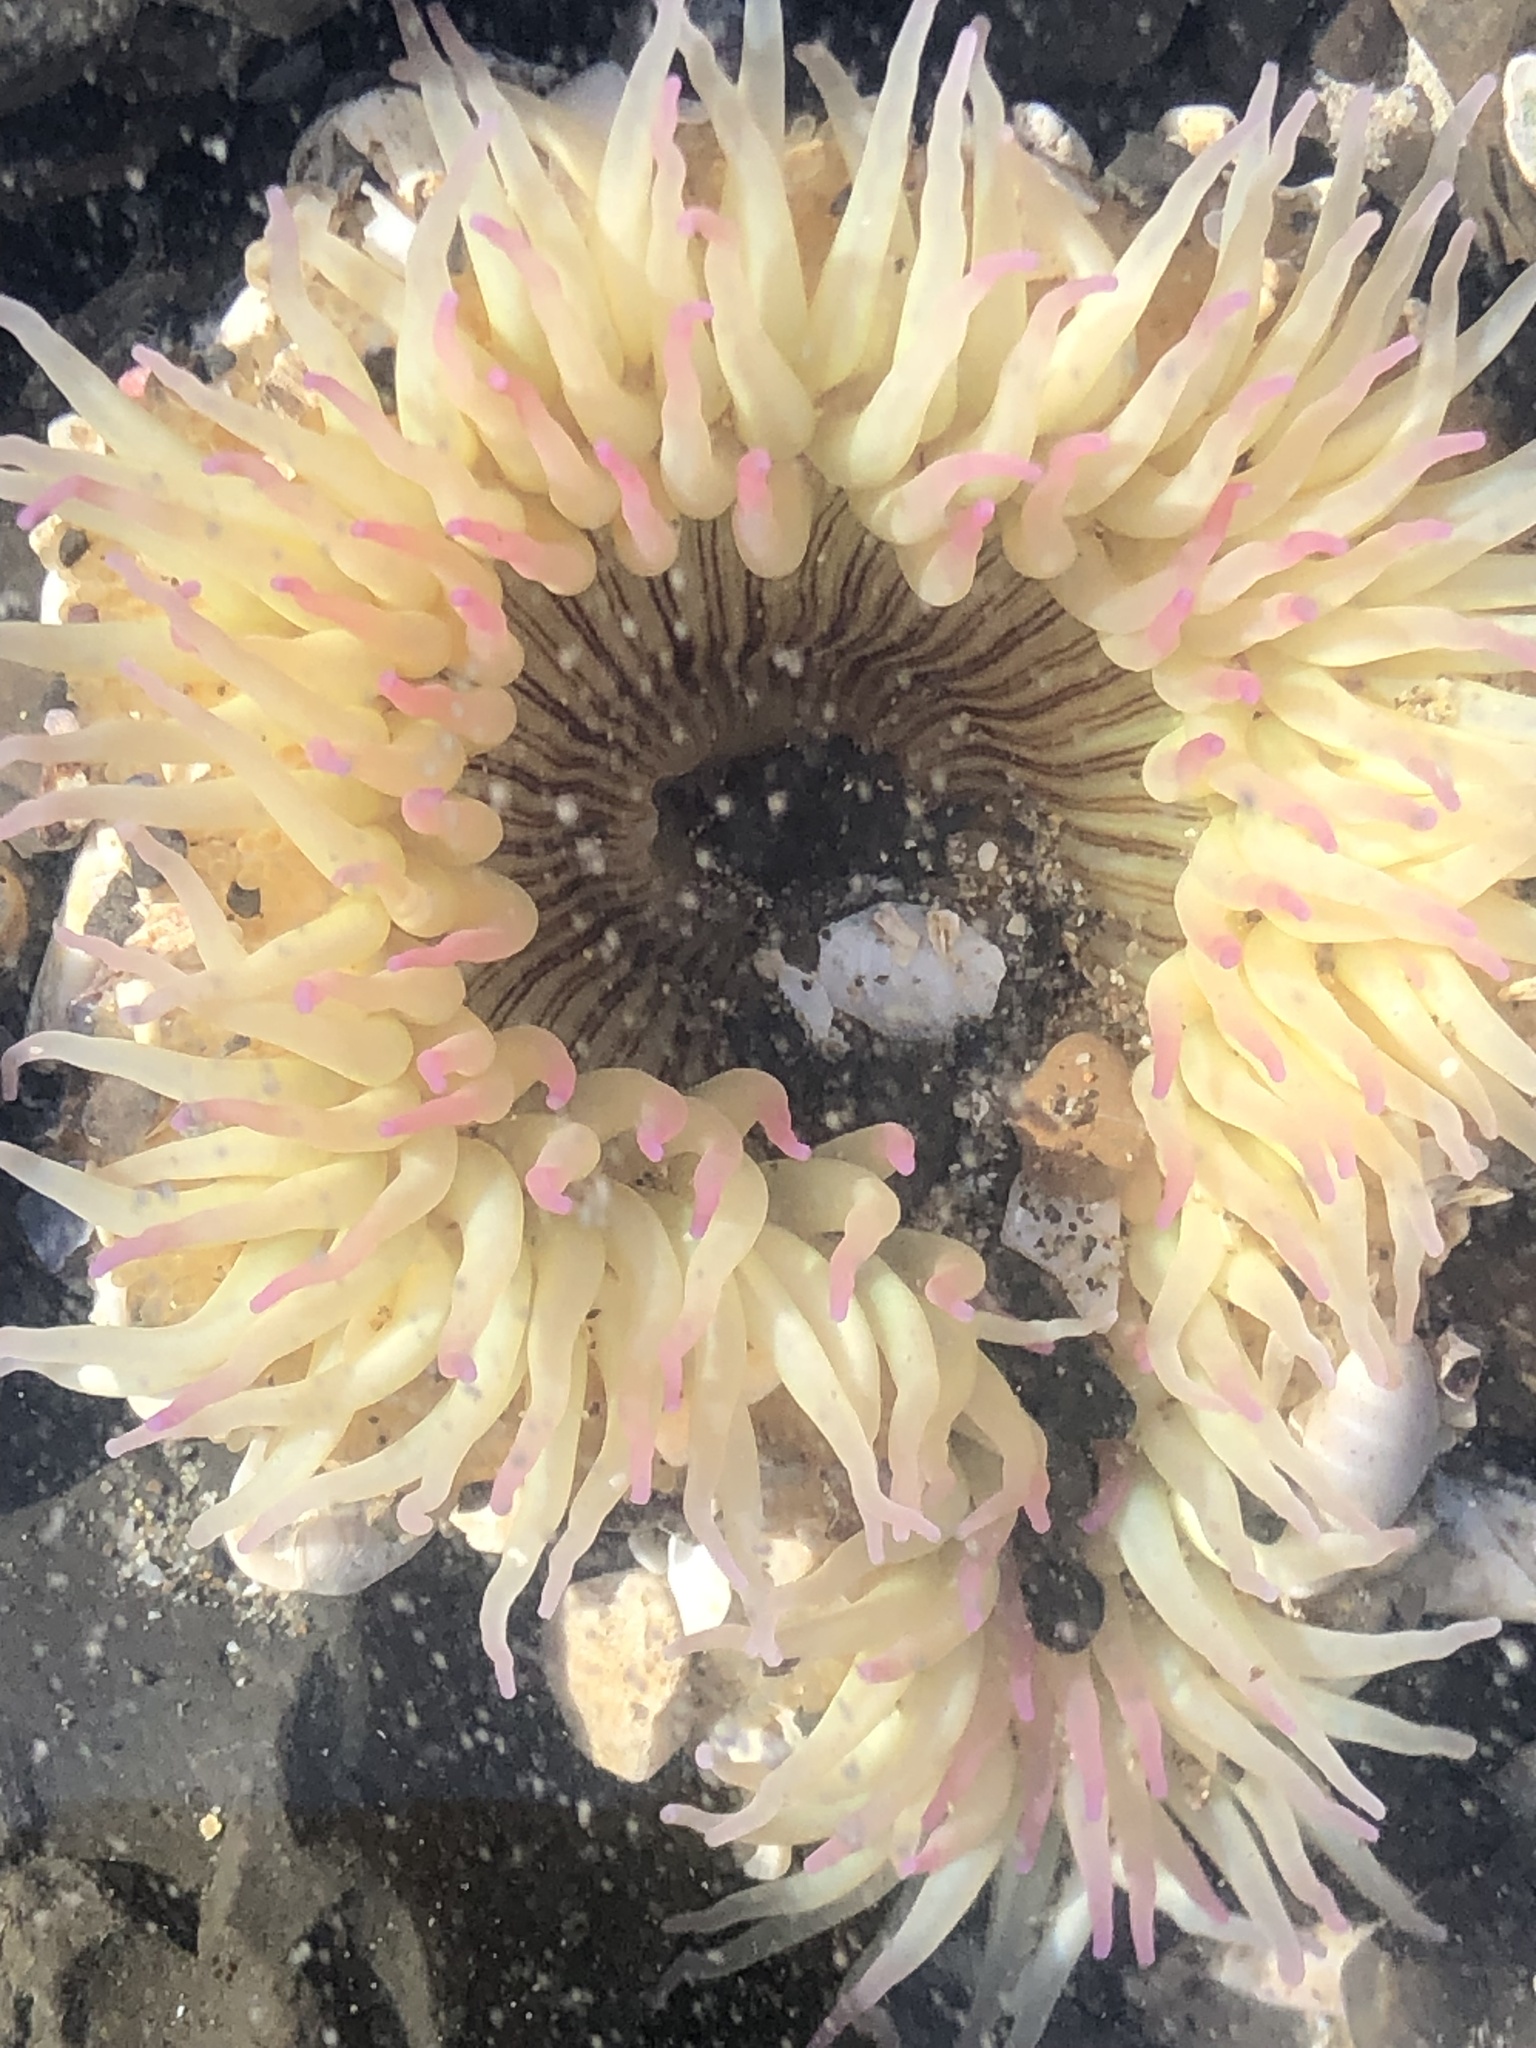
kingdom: Animalia
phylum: Cnidaria
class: Anthozoa
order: Actiniaria
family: Actiniidae
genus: Anthopleura
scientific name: Anthopleura sola
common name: Sun anemone
